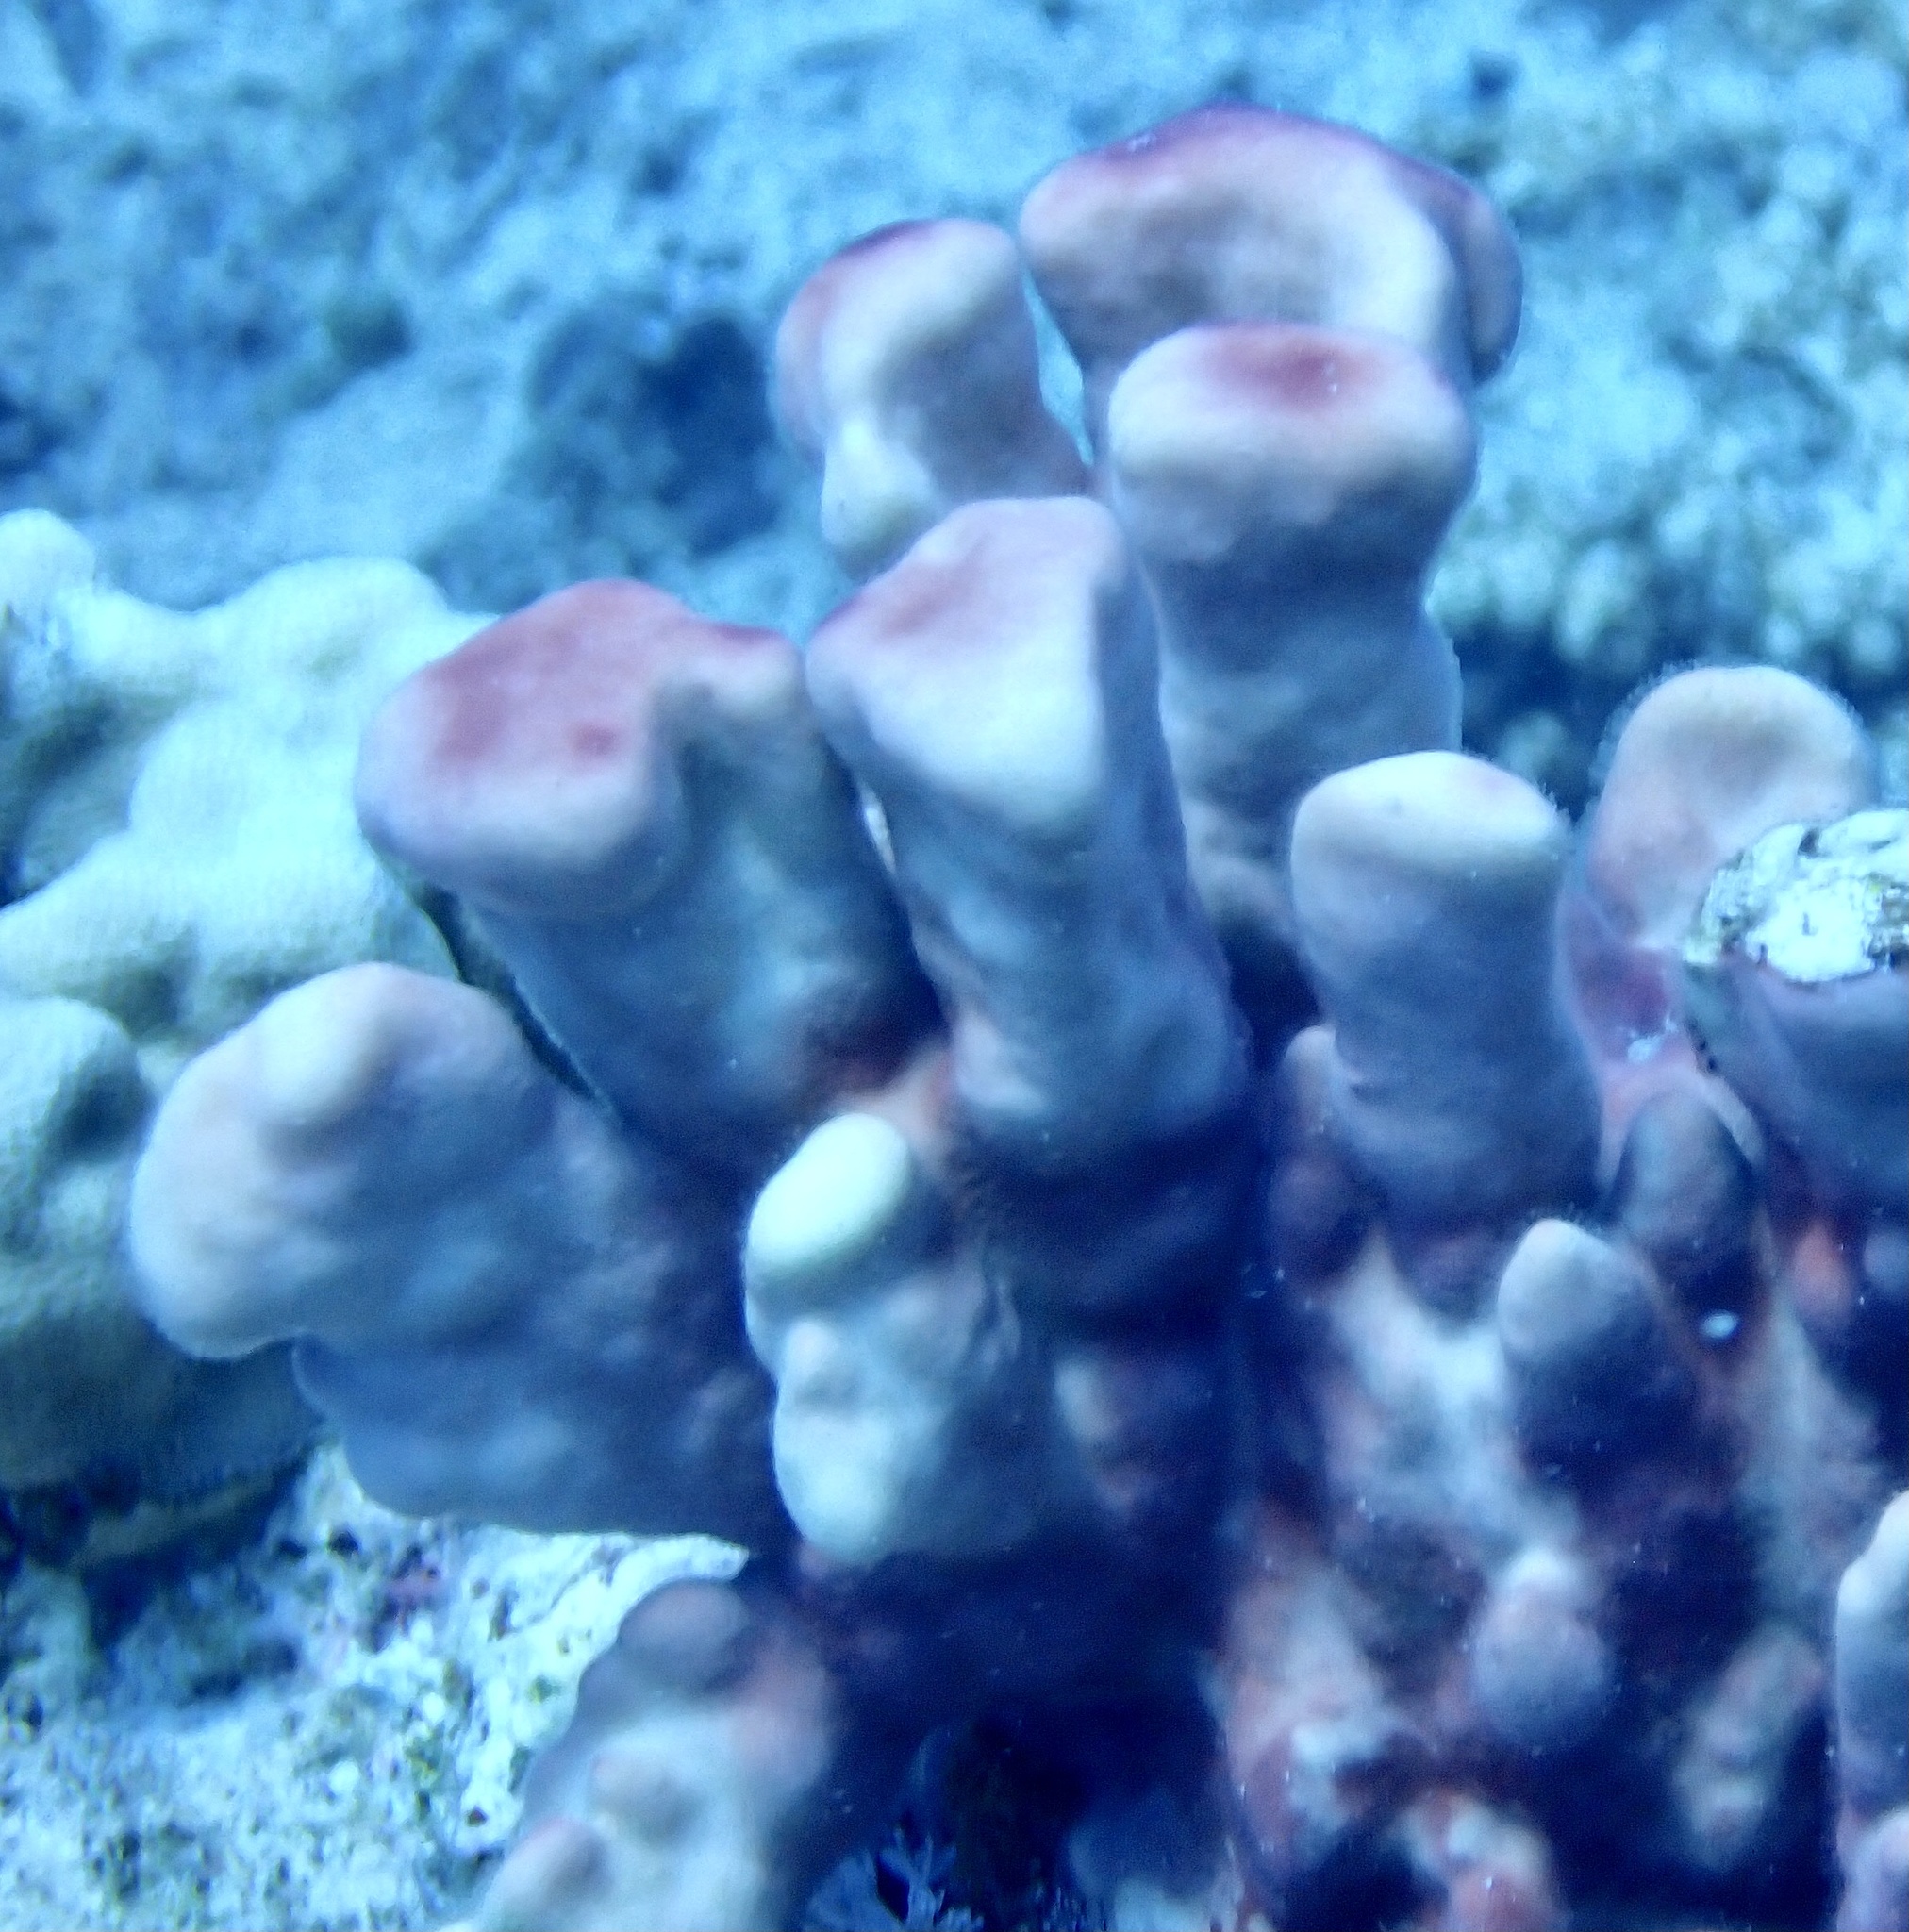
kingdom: Animalia
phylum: Cnidaria
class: Hydrozoa
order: Anthoathecata
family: Milleporidae
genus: Millepora
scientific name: Millepora exaesa
